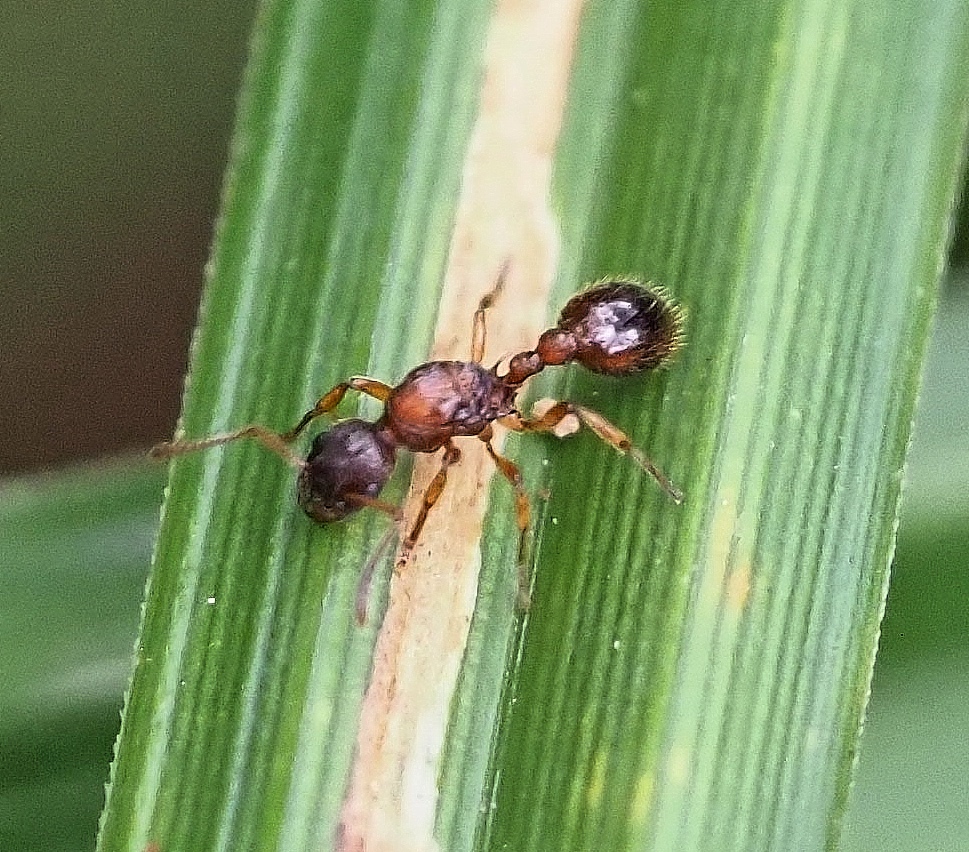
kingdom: Animalia
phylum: Arthropoda
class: Insecta
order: Hymenoptera
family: Formicidae
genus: Myrmica
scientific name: Myrmica ruginodis
